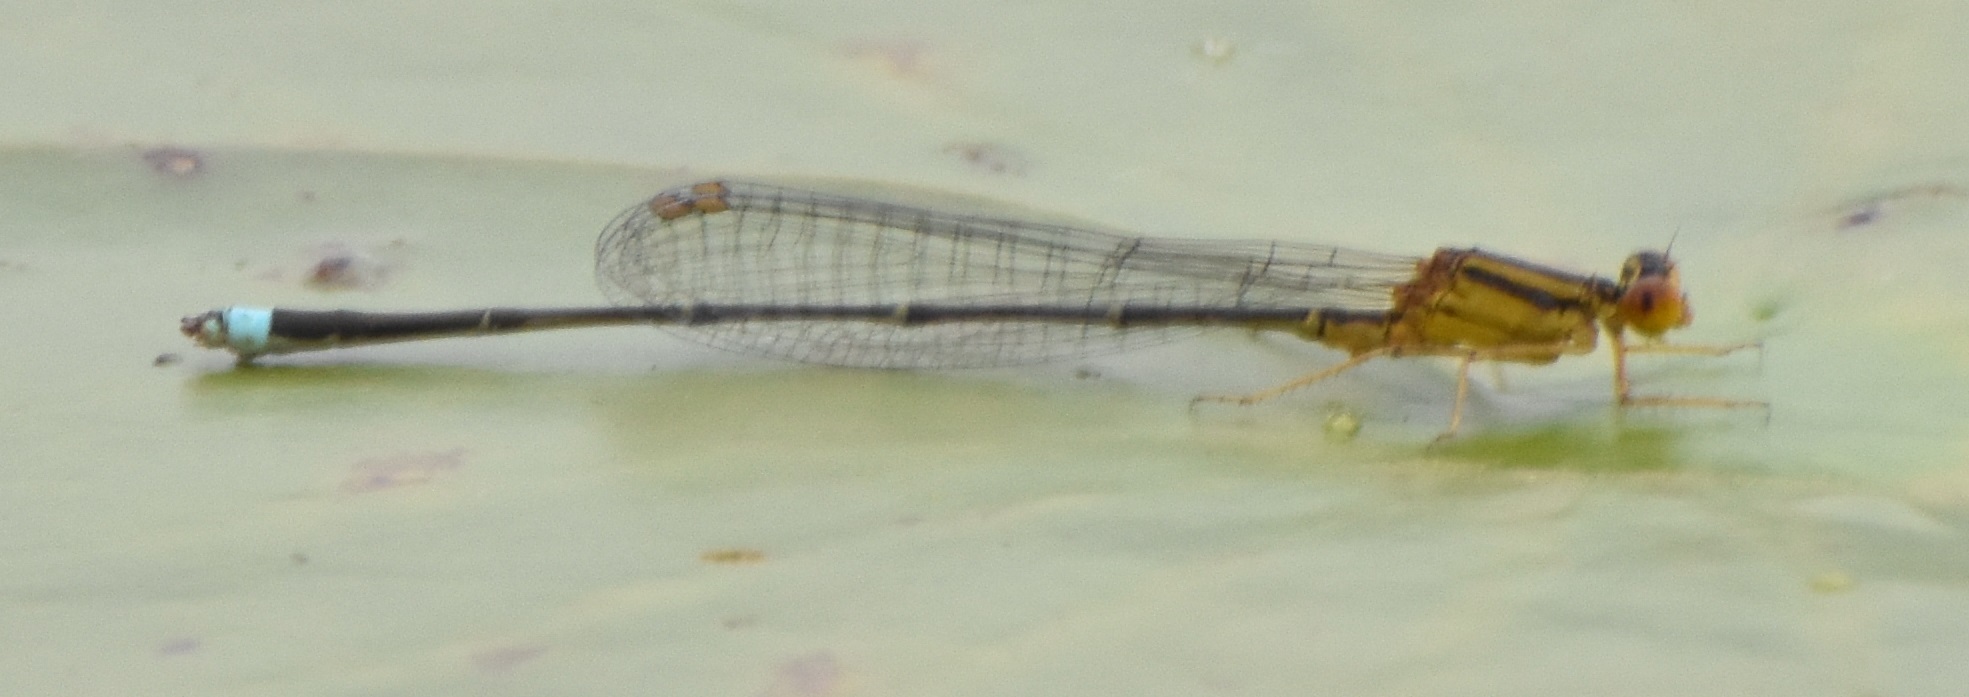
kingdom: Animalia
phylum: Arthropoda
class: Insecta
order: Odonata
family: Coenagrionidae
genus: Enallagma
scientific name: Enallagma vesperum
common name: Vesper bluet
